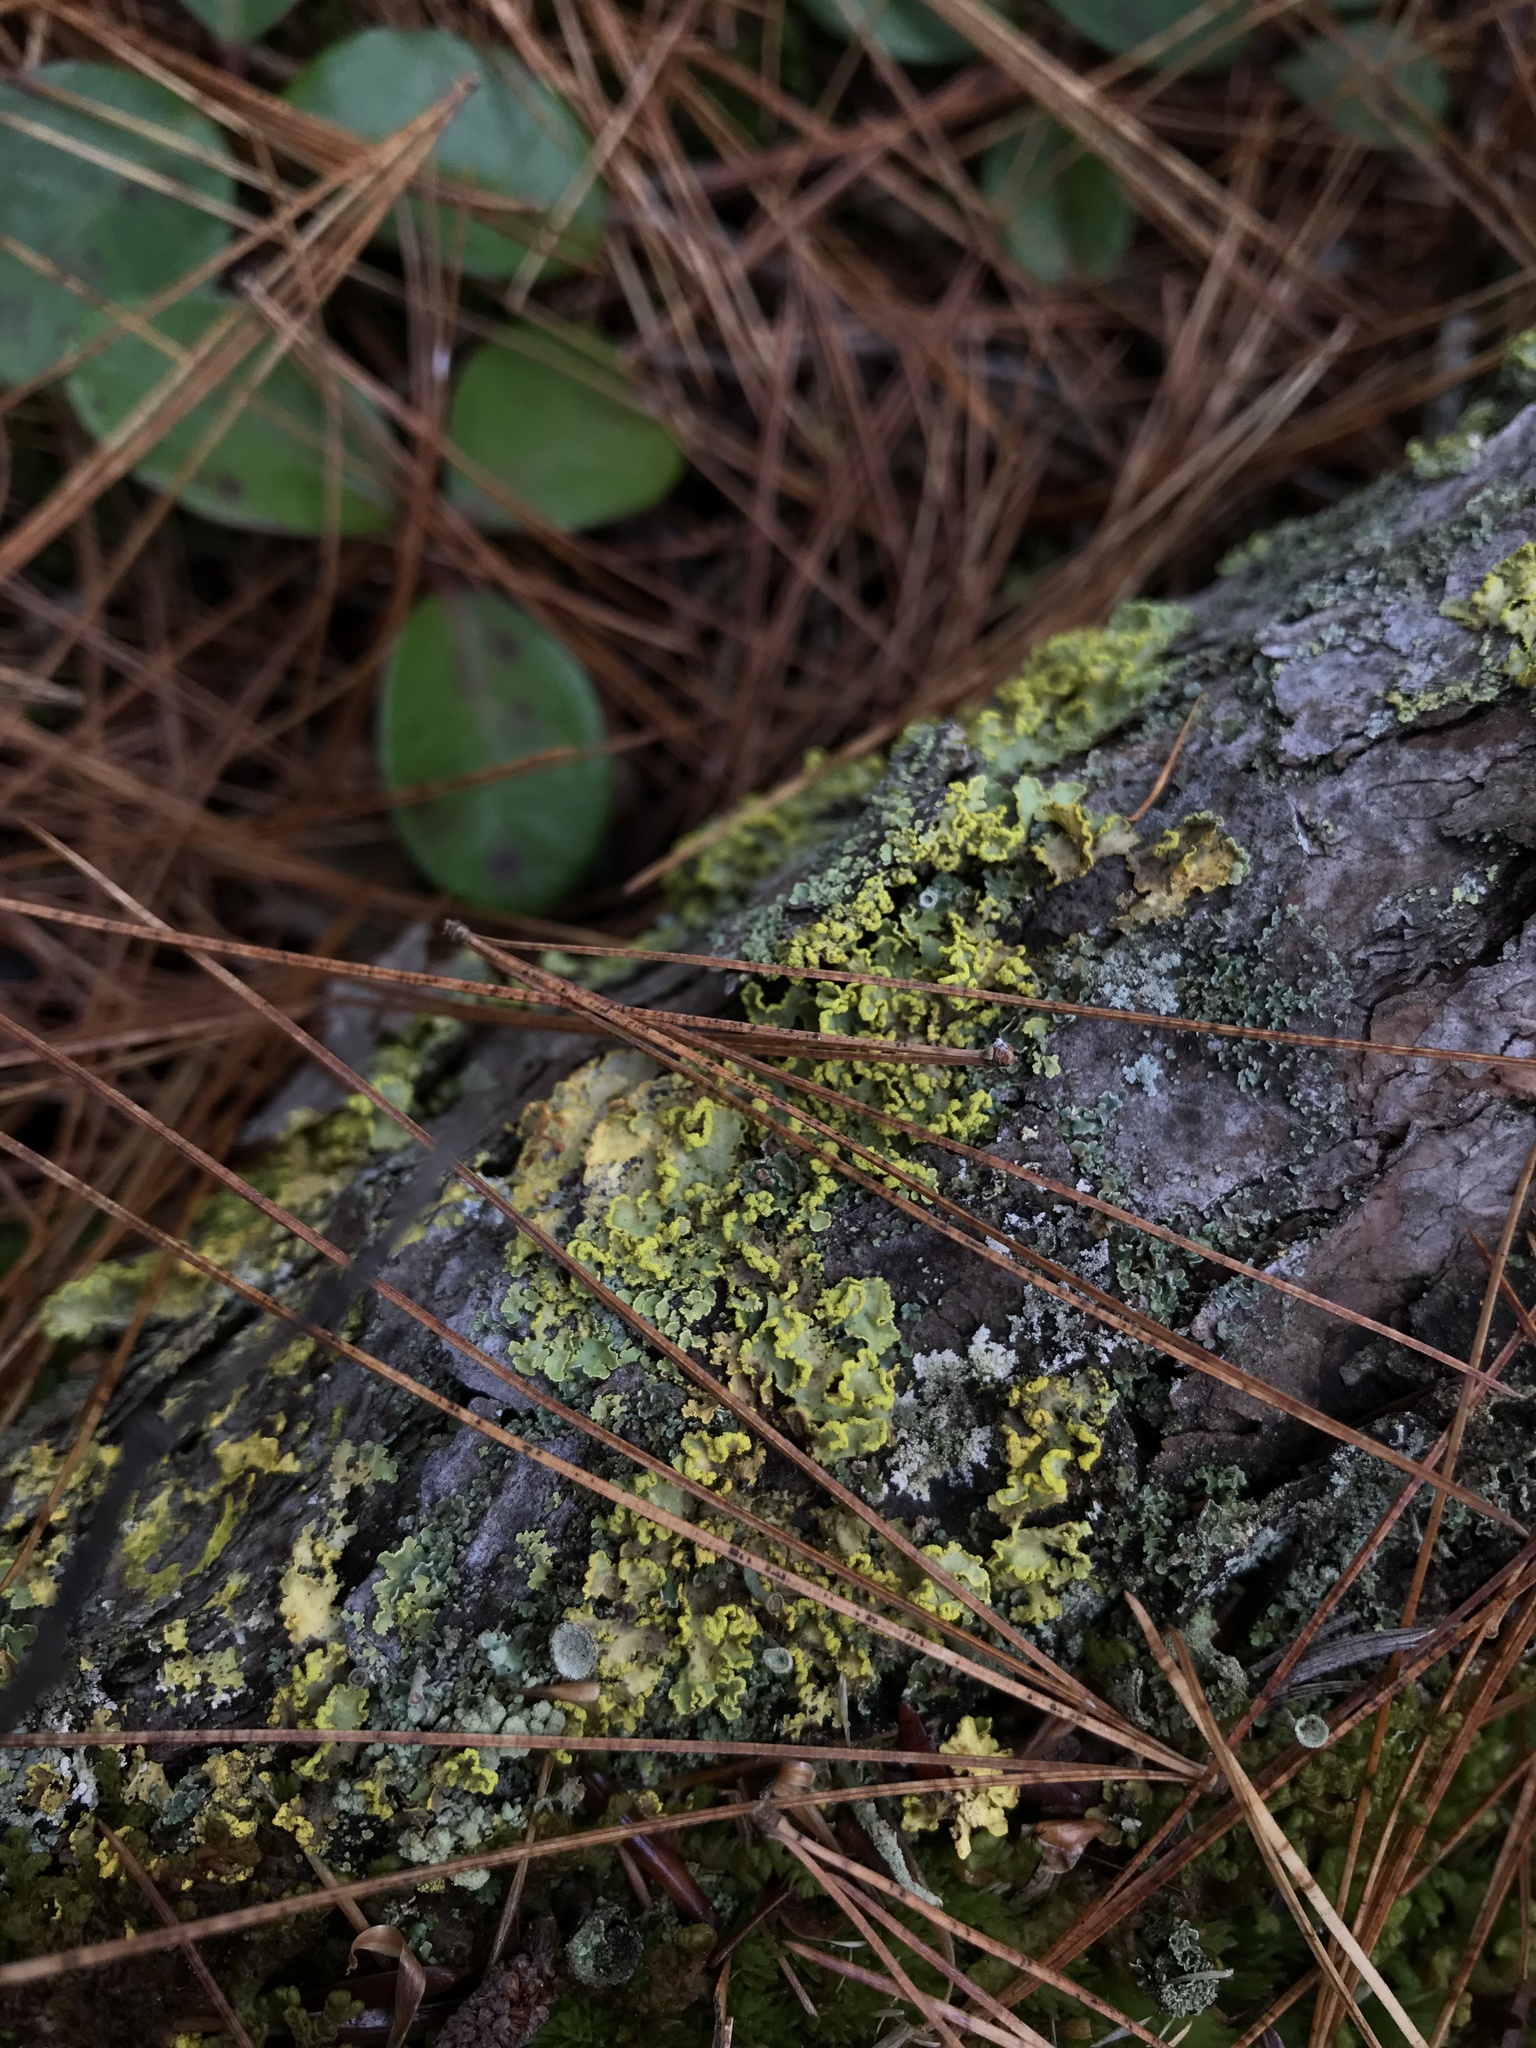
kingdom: Fungi
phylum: Ascomycota
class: Lecanoromycetes
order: Lecanorales
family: Parmeliaceae
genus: Vulpicida
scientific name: Vulpicida pinastri
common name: Powdered sunshine lichen
